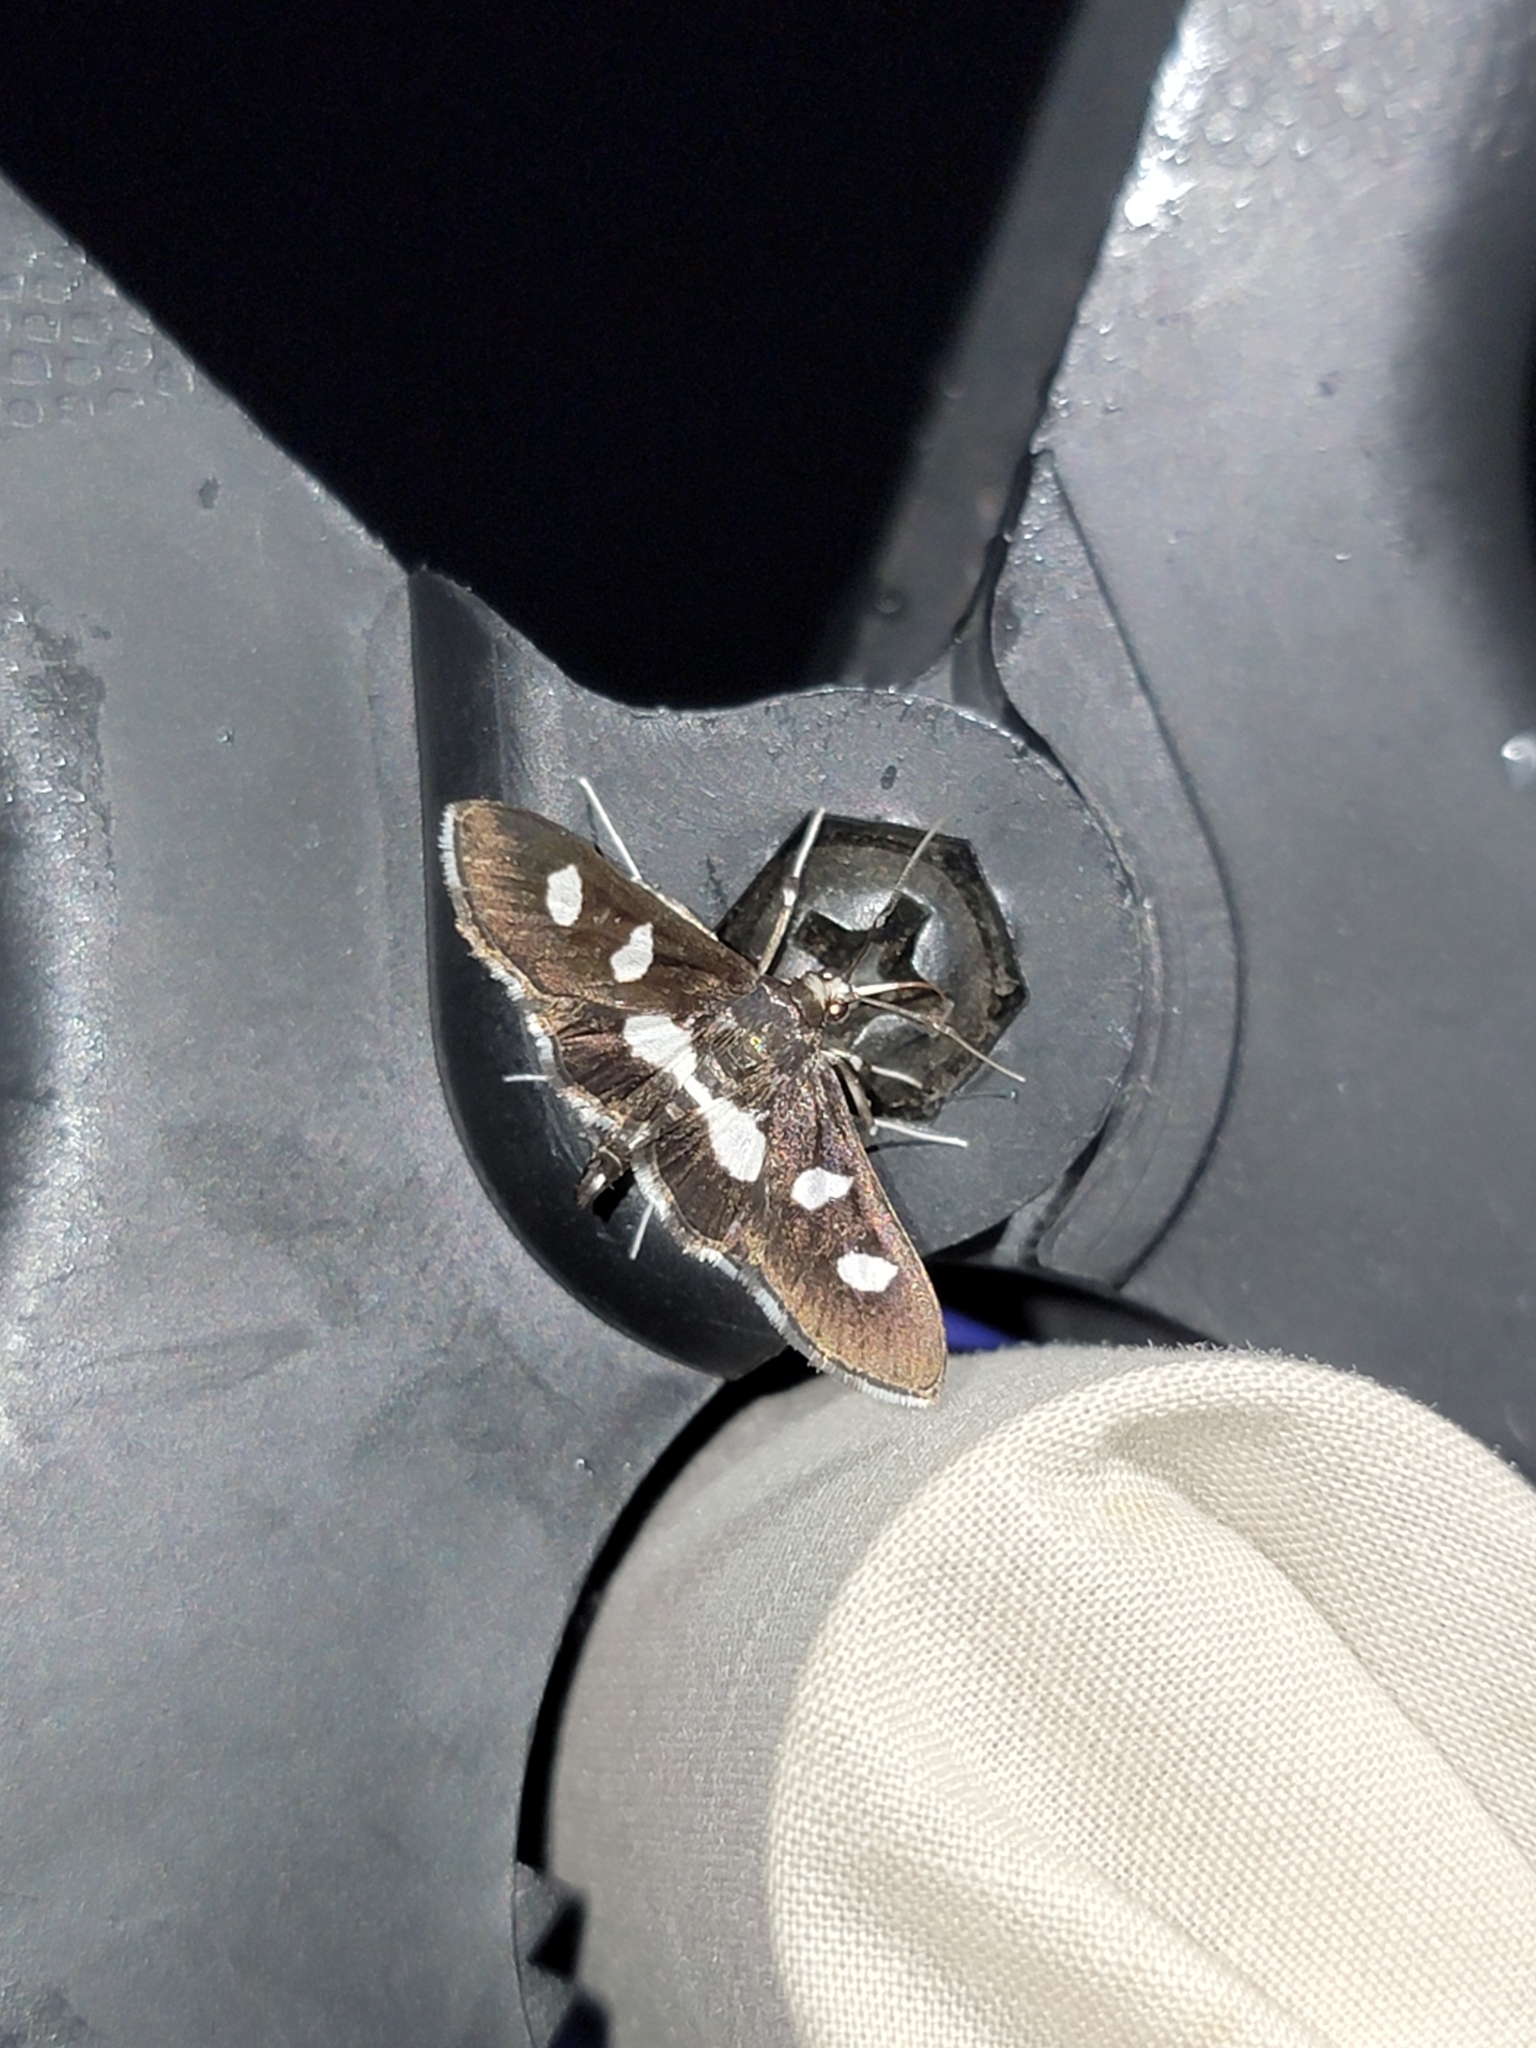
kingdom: Animalia
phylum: Arthropoda
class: Insecta
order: Lepidoptera
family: Crambidae
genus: Desmia
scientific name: Desmia
